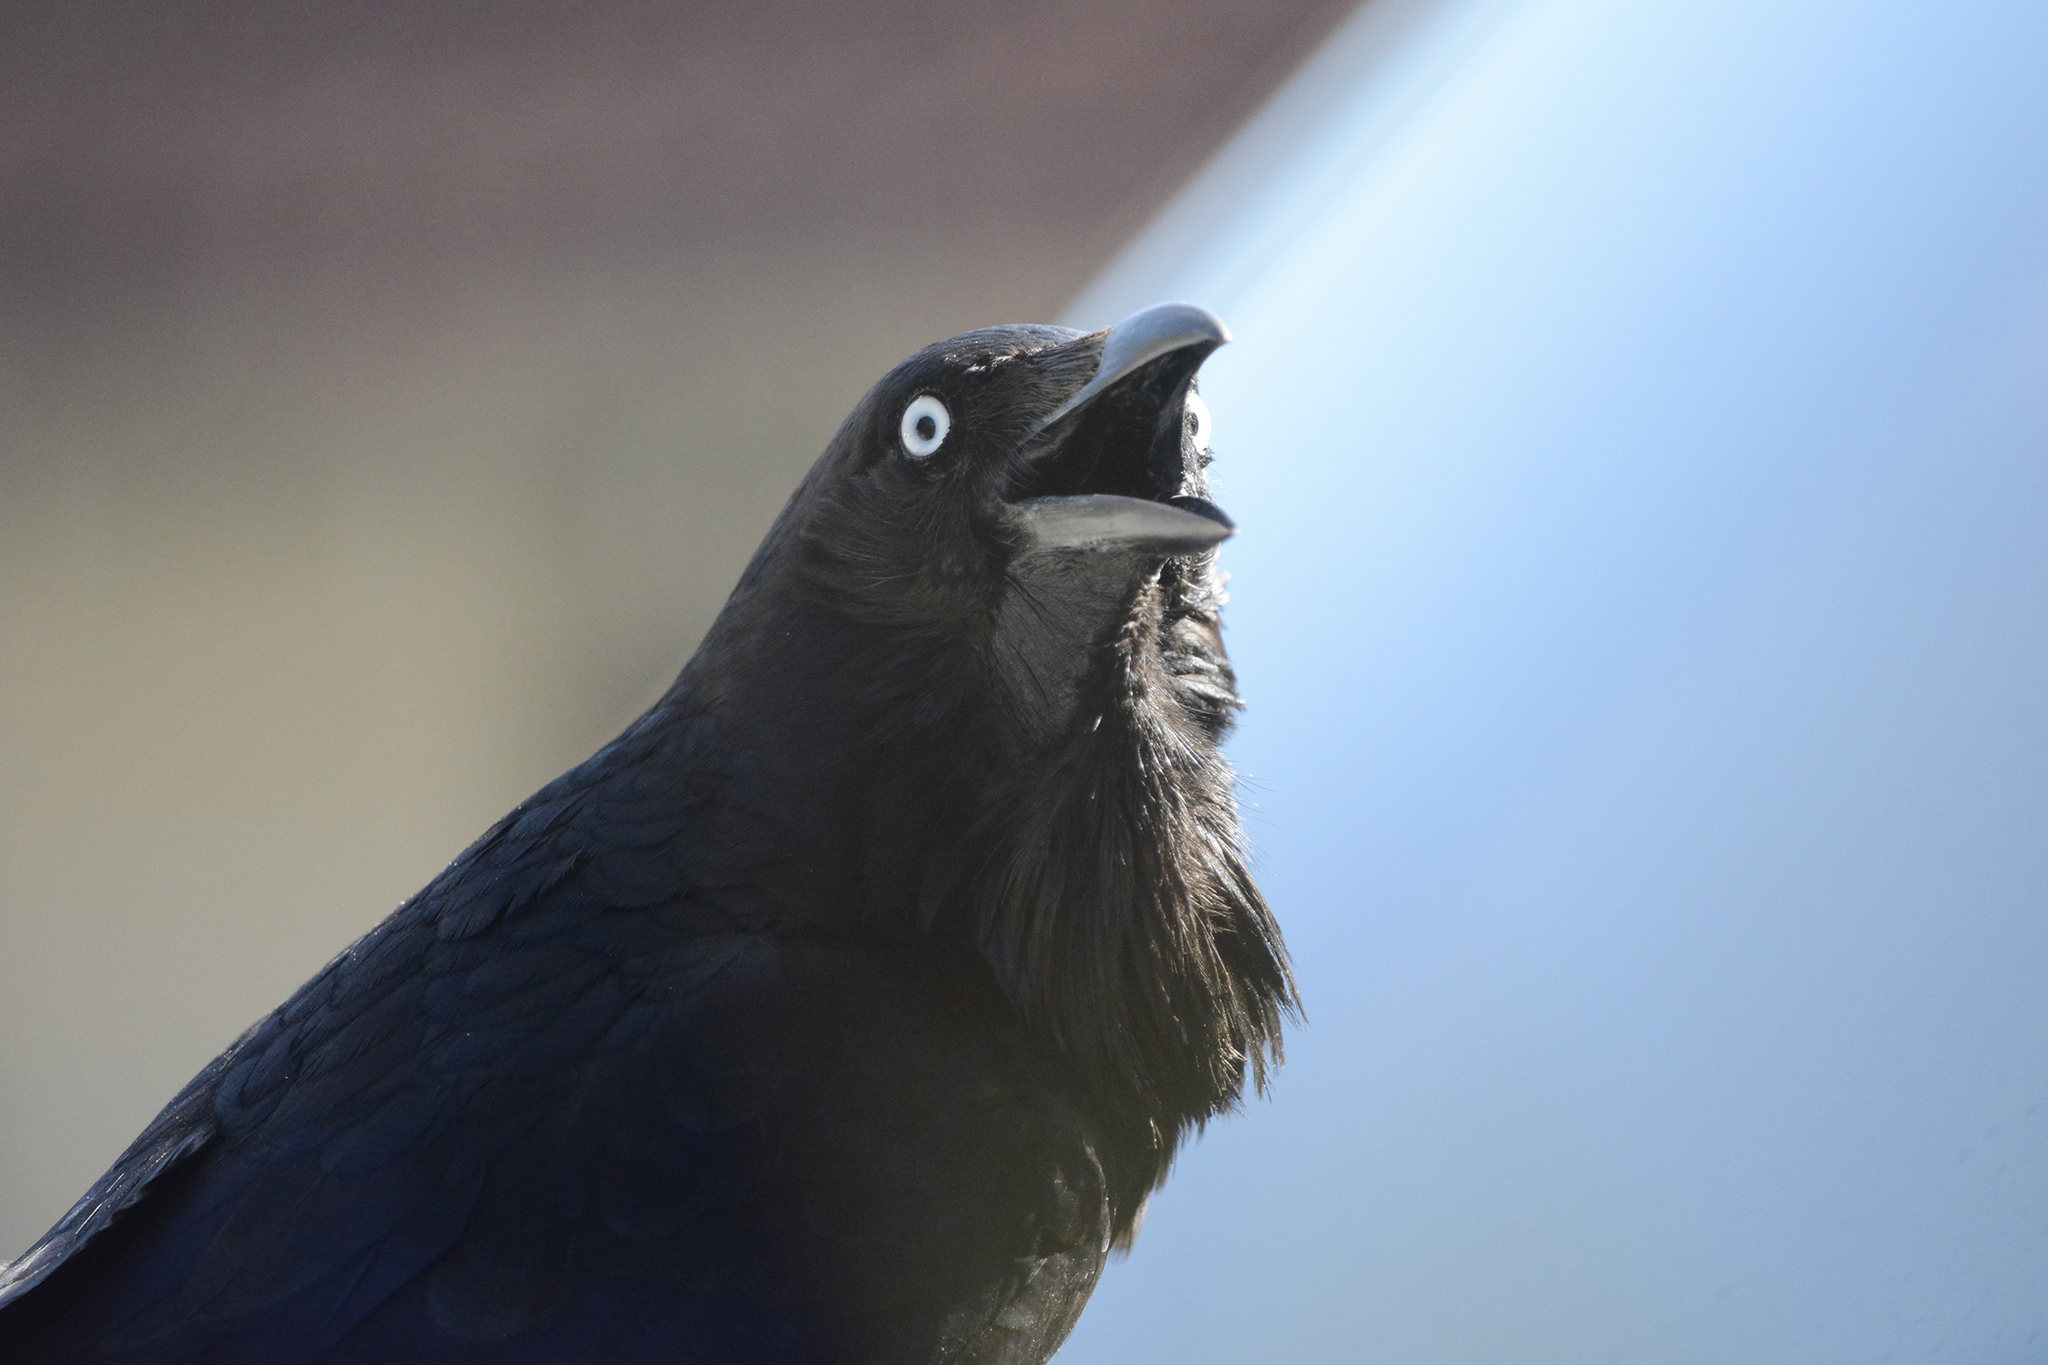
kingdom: Animalia
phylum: Chordata
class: Aves
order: Passeriformes
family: Corvidae
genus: Corvus
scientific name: Corvus coronoides
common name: Australian raven
